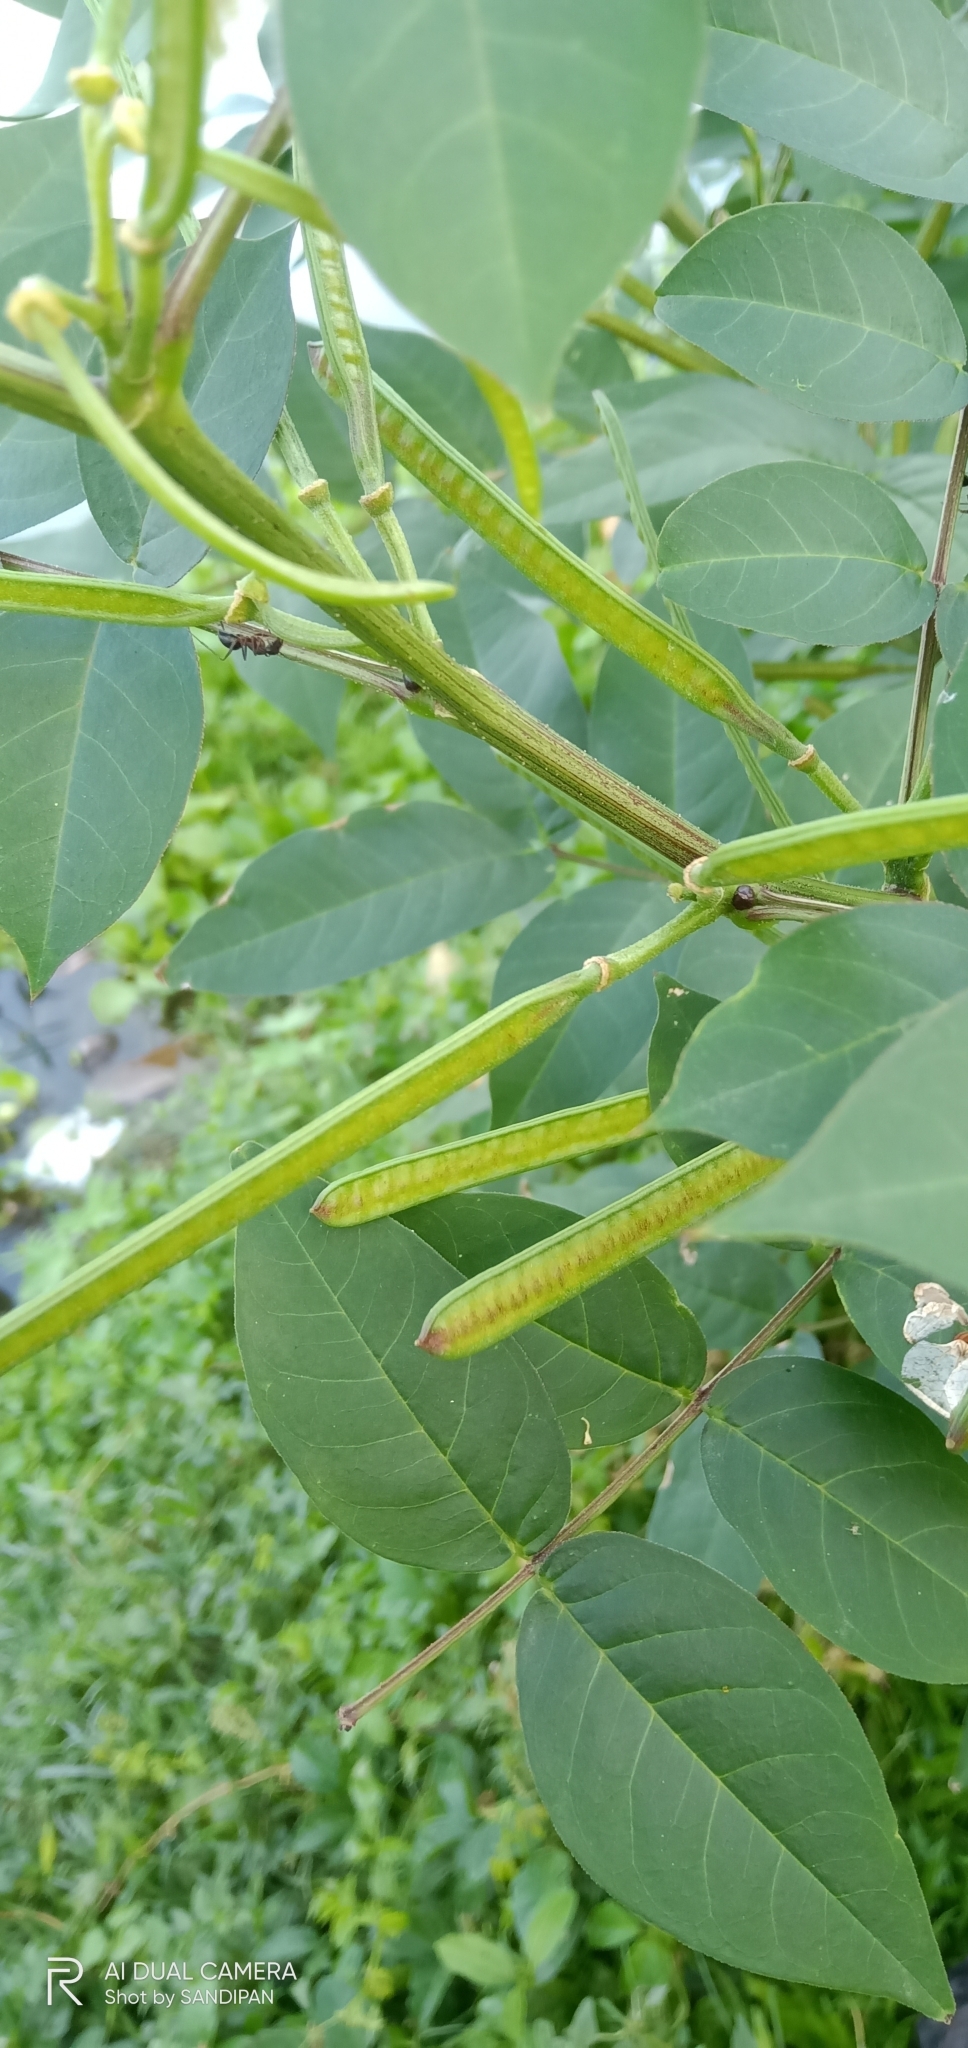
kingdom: Plantae
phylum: Tracheophyta
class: Magnoliopsida
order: Fabales
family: Fabaceae
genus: Senna
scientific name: Senna occidentalis
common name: Septicweed
